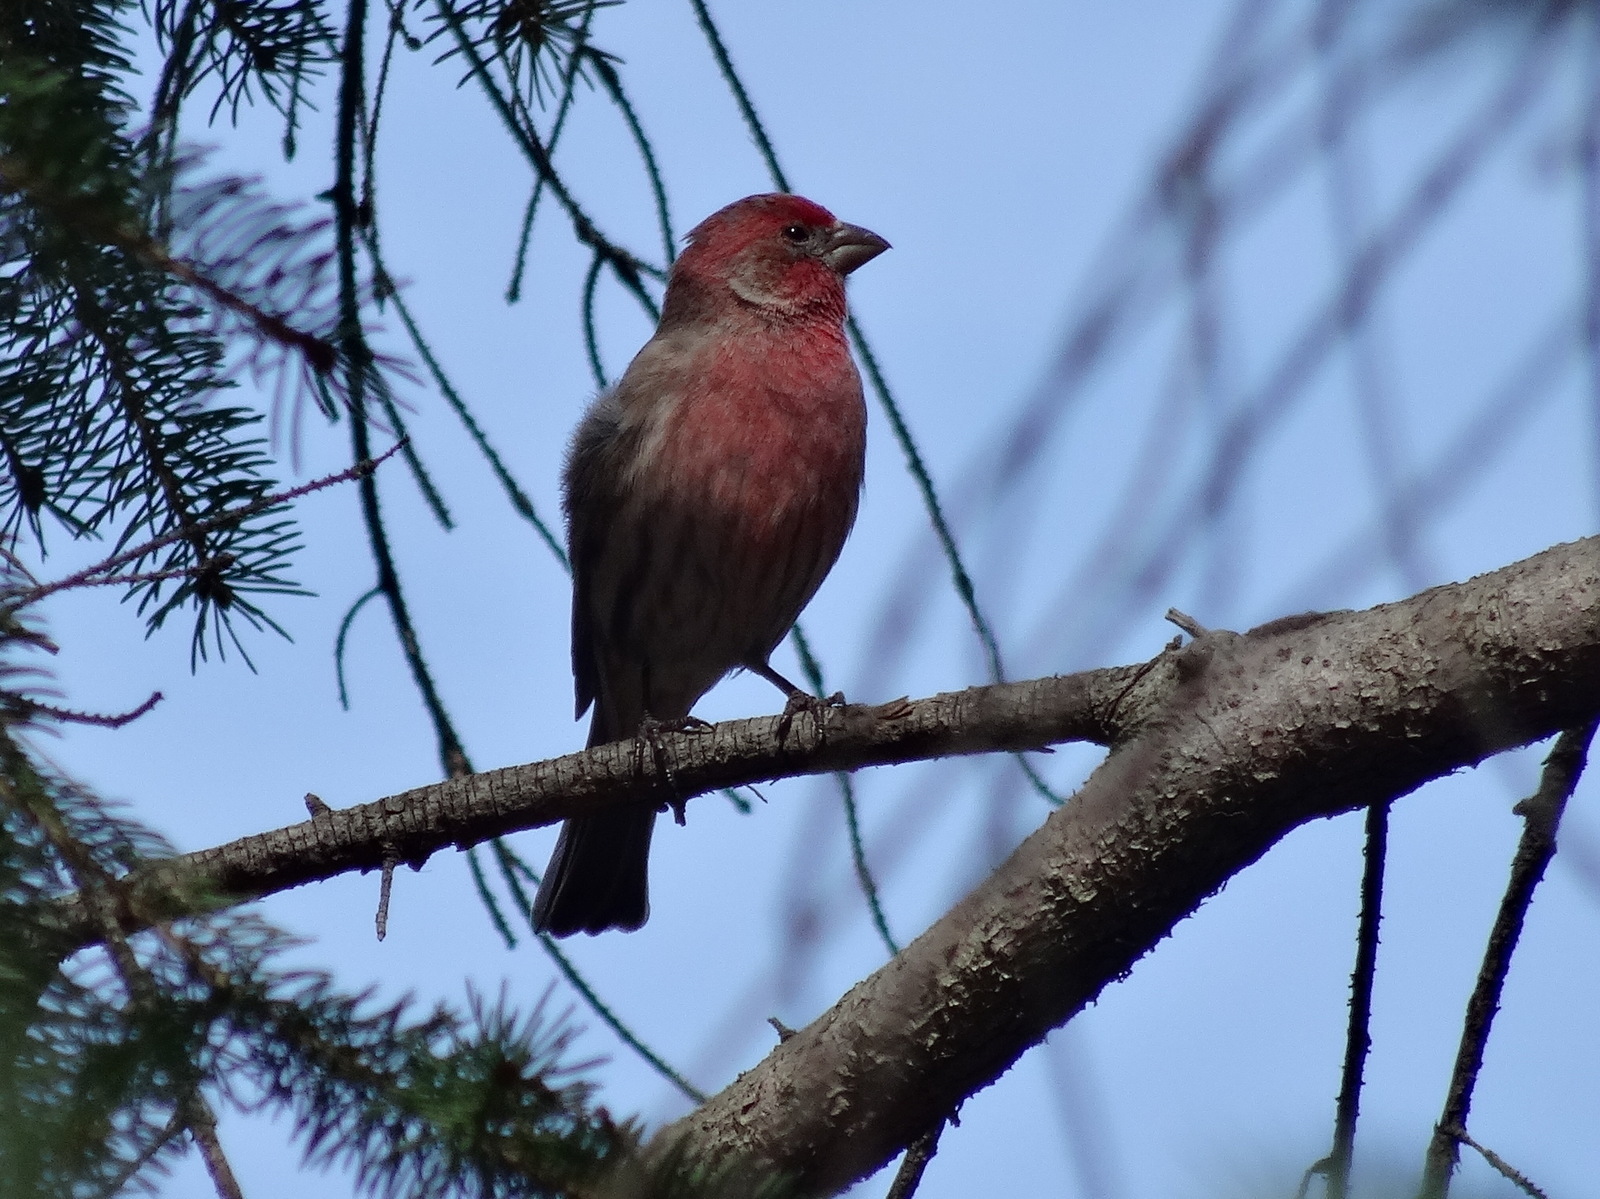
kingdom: Animalia
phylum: Chordata
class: Aves
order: Passeriformes
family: Fringillidae
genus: Haemorhous
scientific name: Haemorhous mexicanus
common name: House finch
